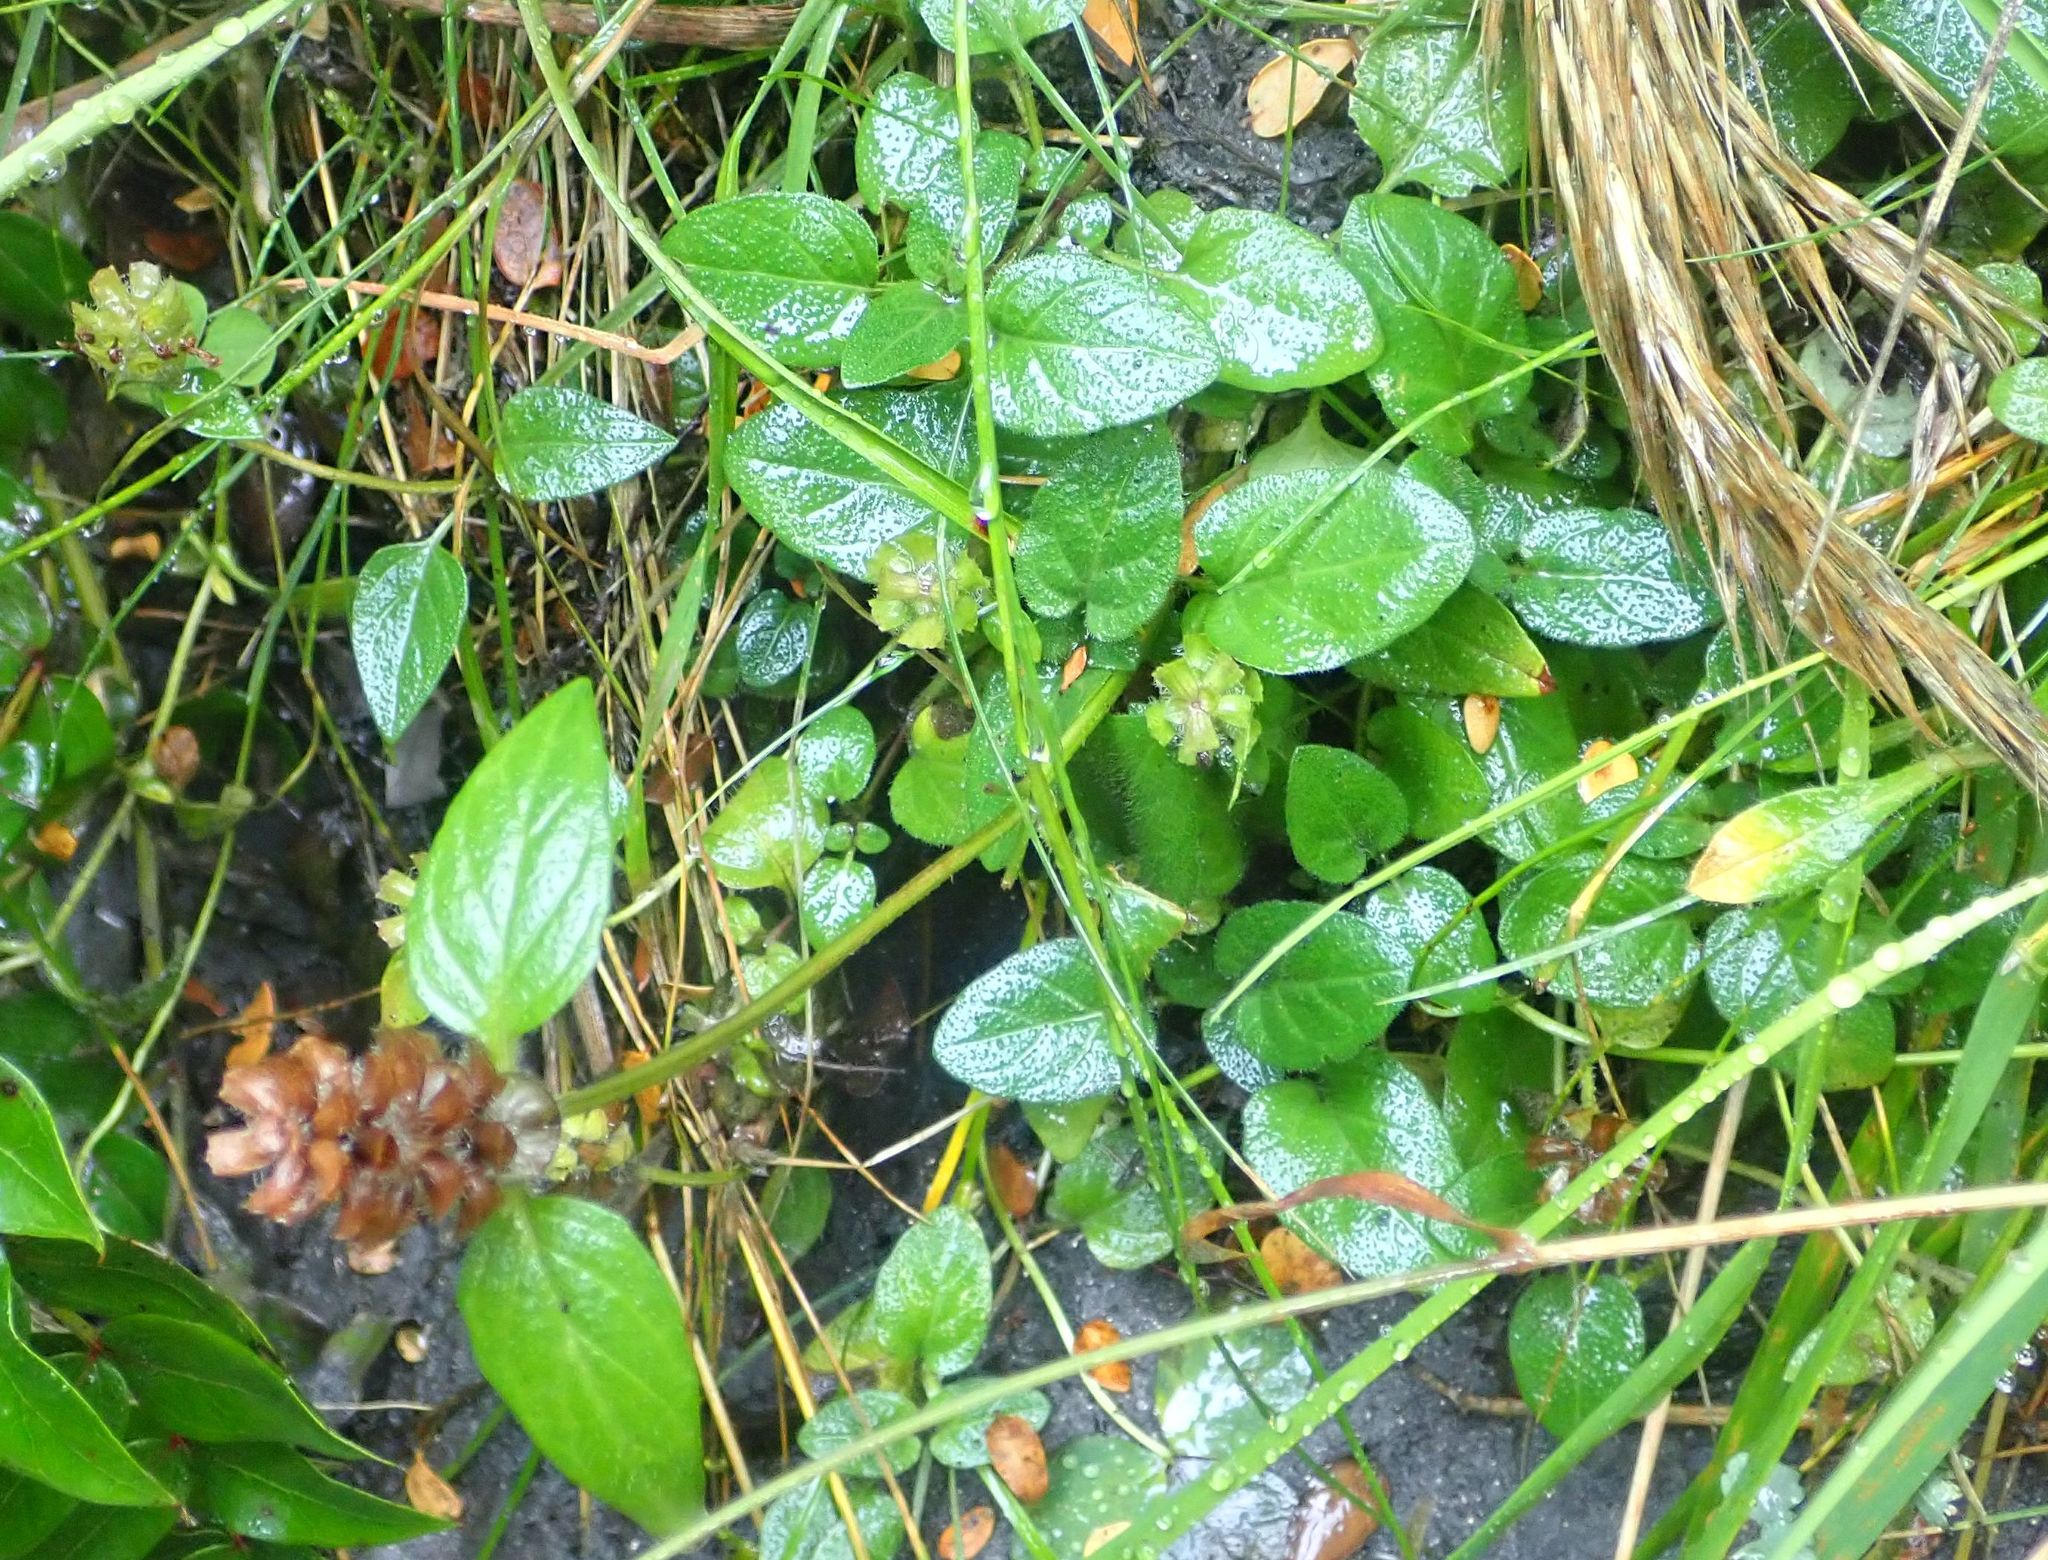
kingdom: Plantae
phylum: Tracheophyta
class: Magnoliopsida
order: Lamiales
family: Lamiaceae
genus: Prunella
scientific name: Prunella vulgaris
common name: Heal-all
